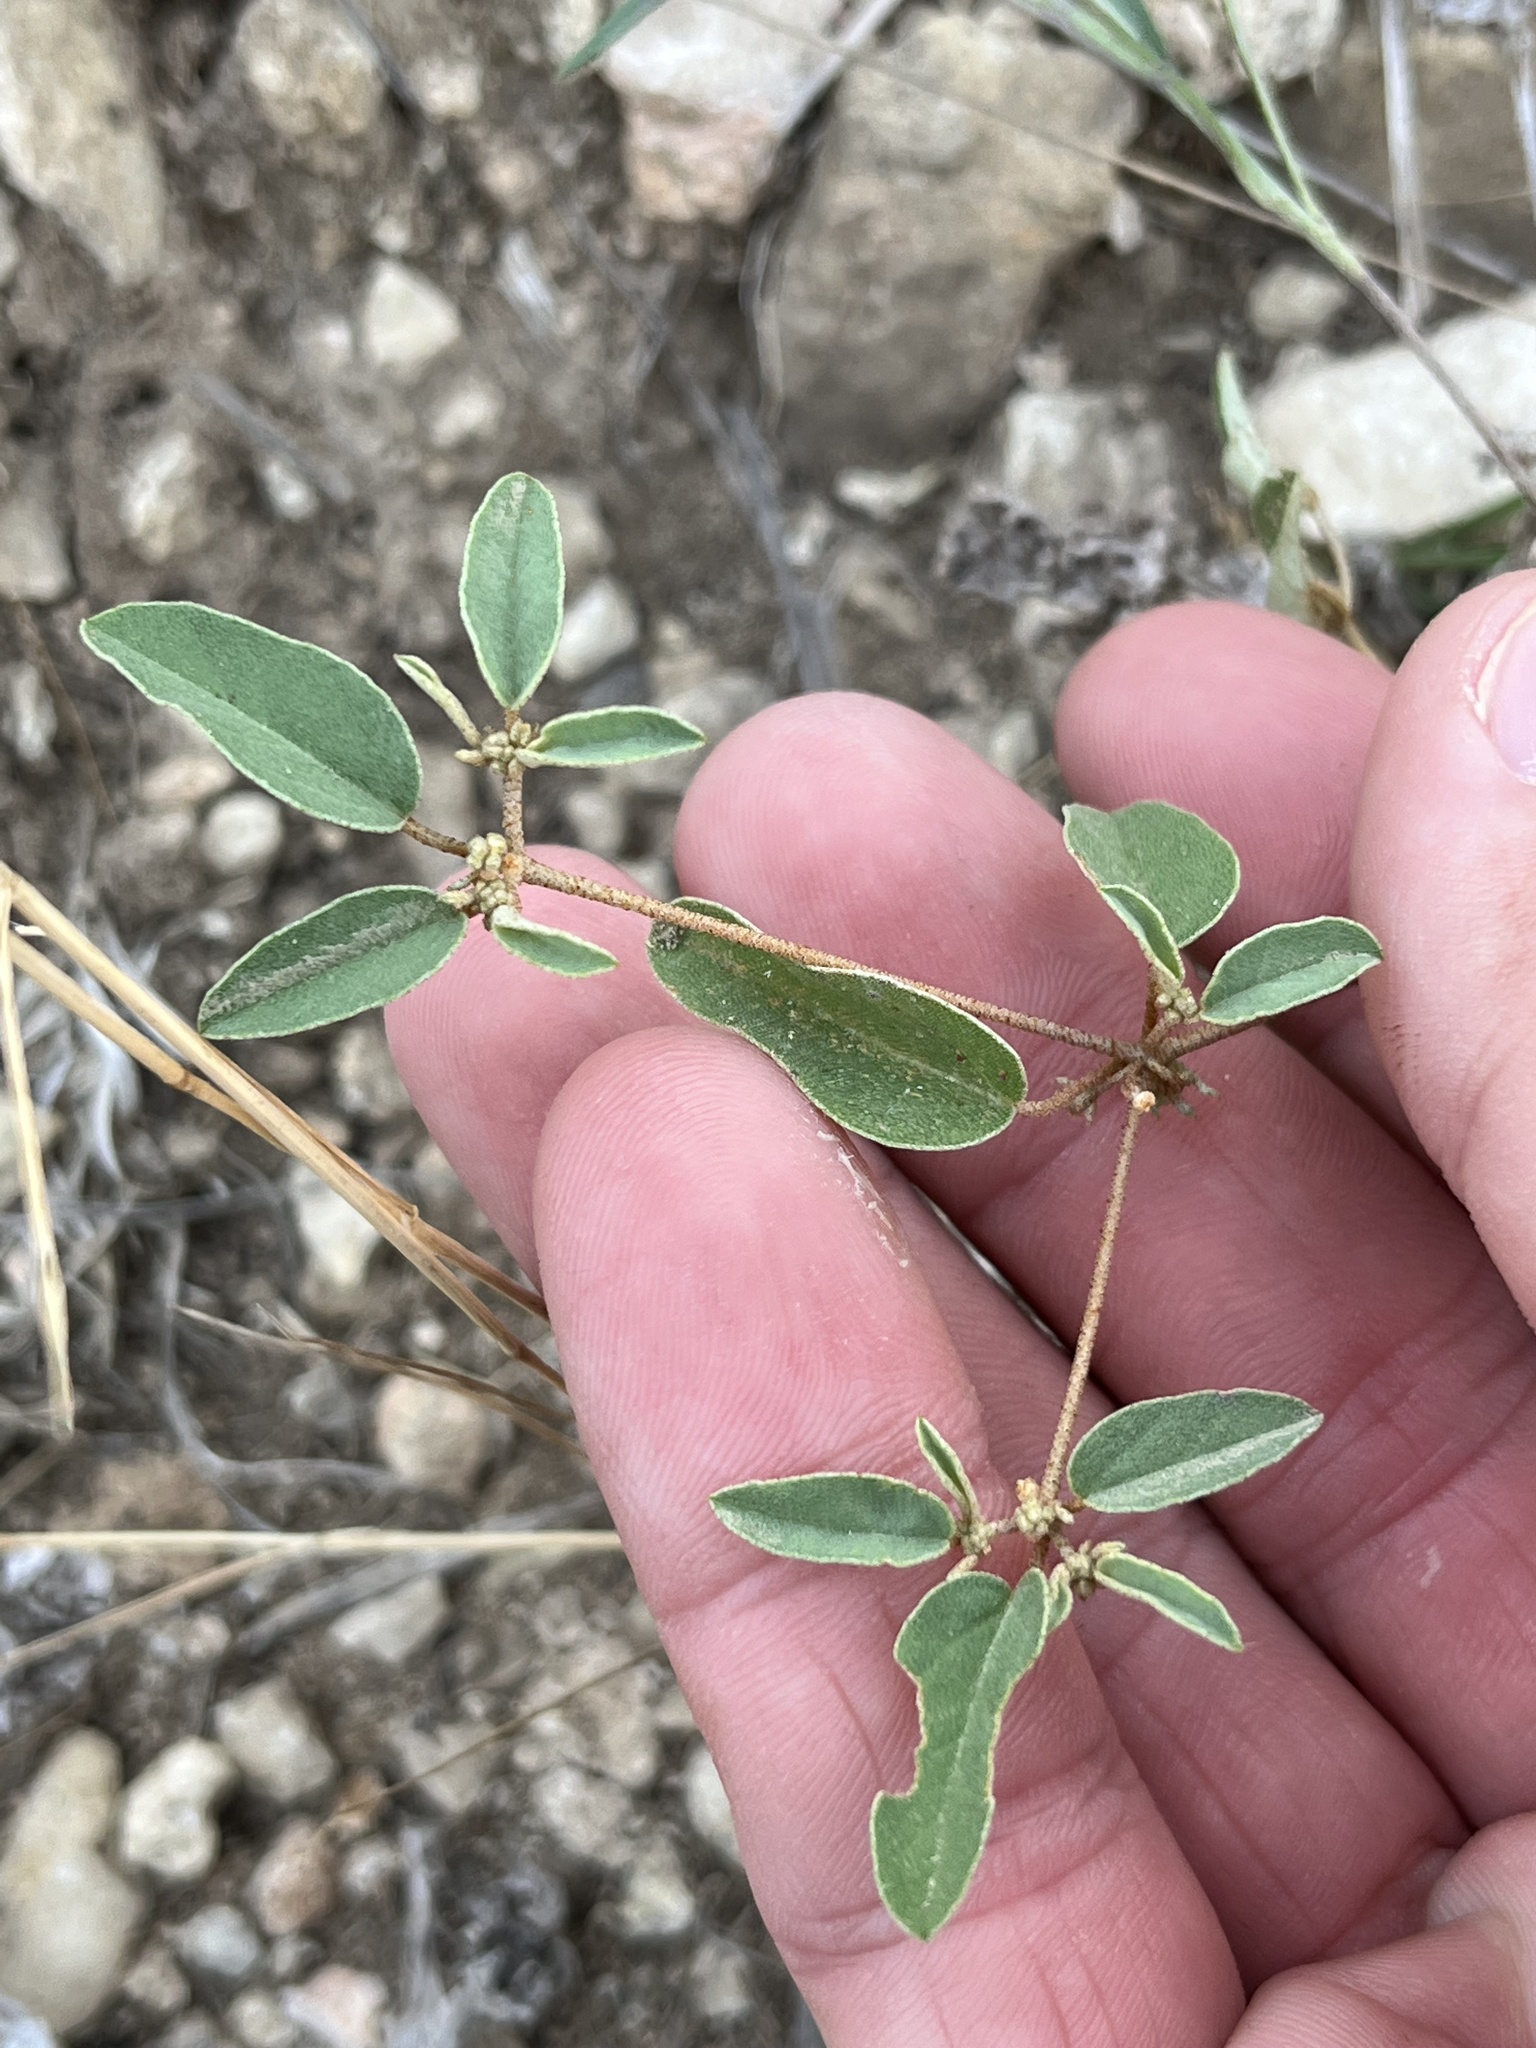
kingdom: Plantae
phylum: Tracheophyta
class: Magnoliopsida
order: Malpighiales
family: Euphorbiaceae
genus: Croton
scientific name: Croton monanthogynus
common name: One-seed croton
